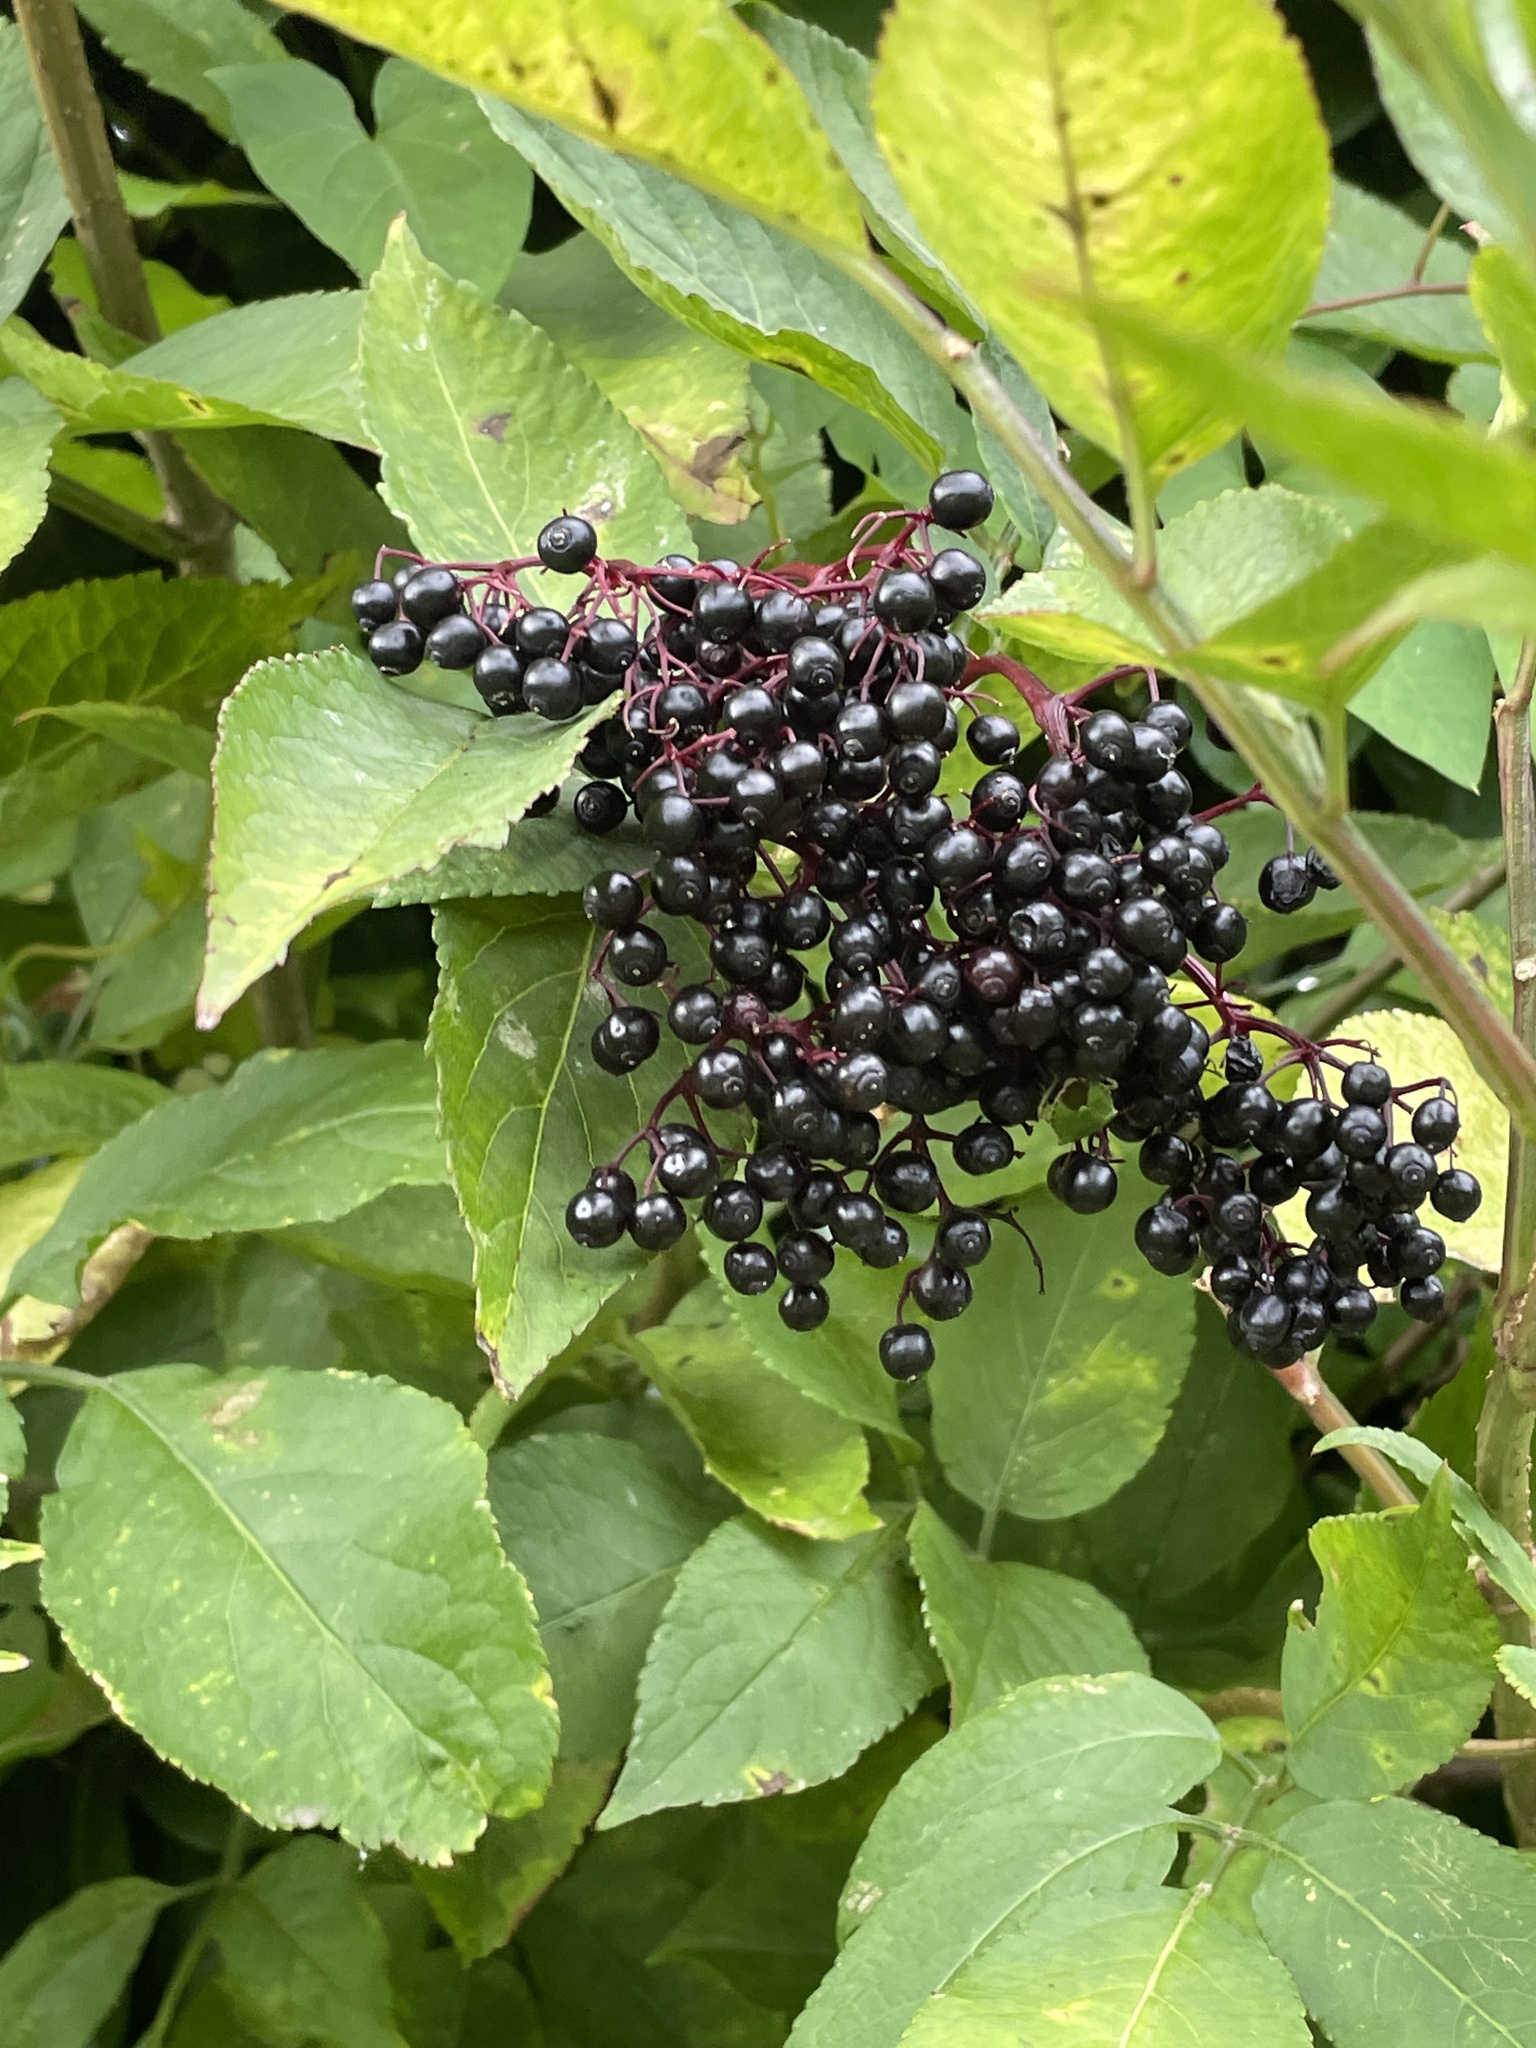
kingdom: Plantae
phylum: Tracheophyta
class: Magnoliopsida
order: Dipsacales
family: Viburnaceae
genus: Sambucus
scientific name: Sambucus nigra
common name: Elder
